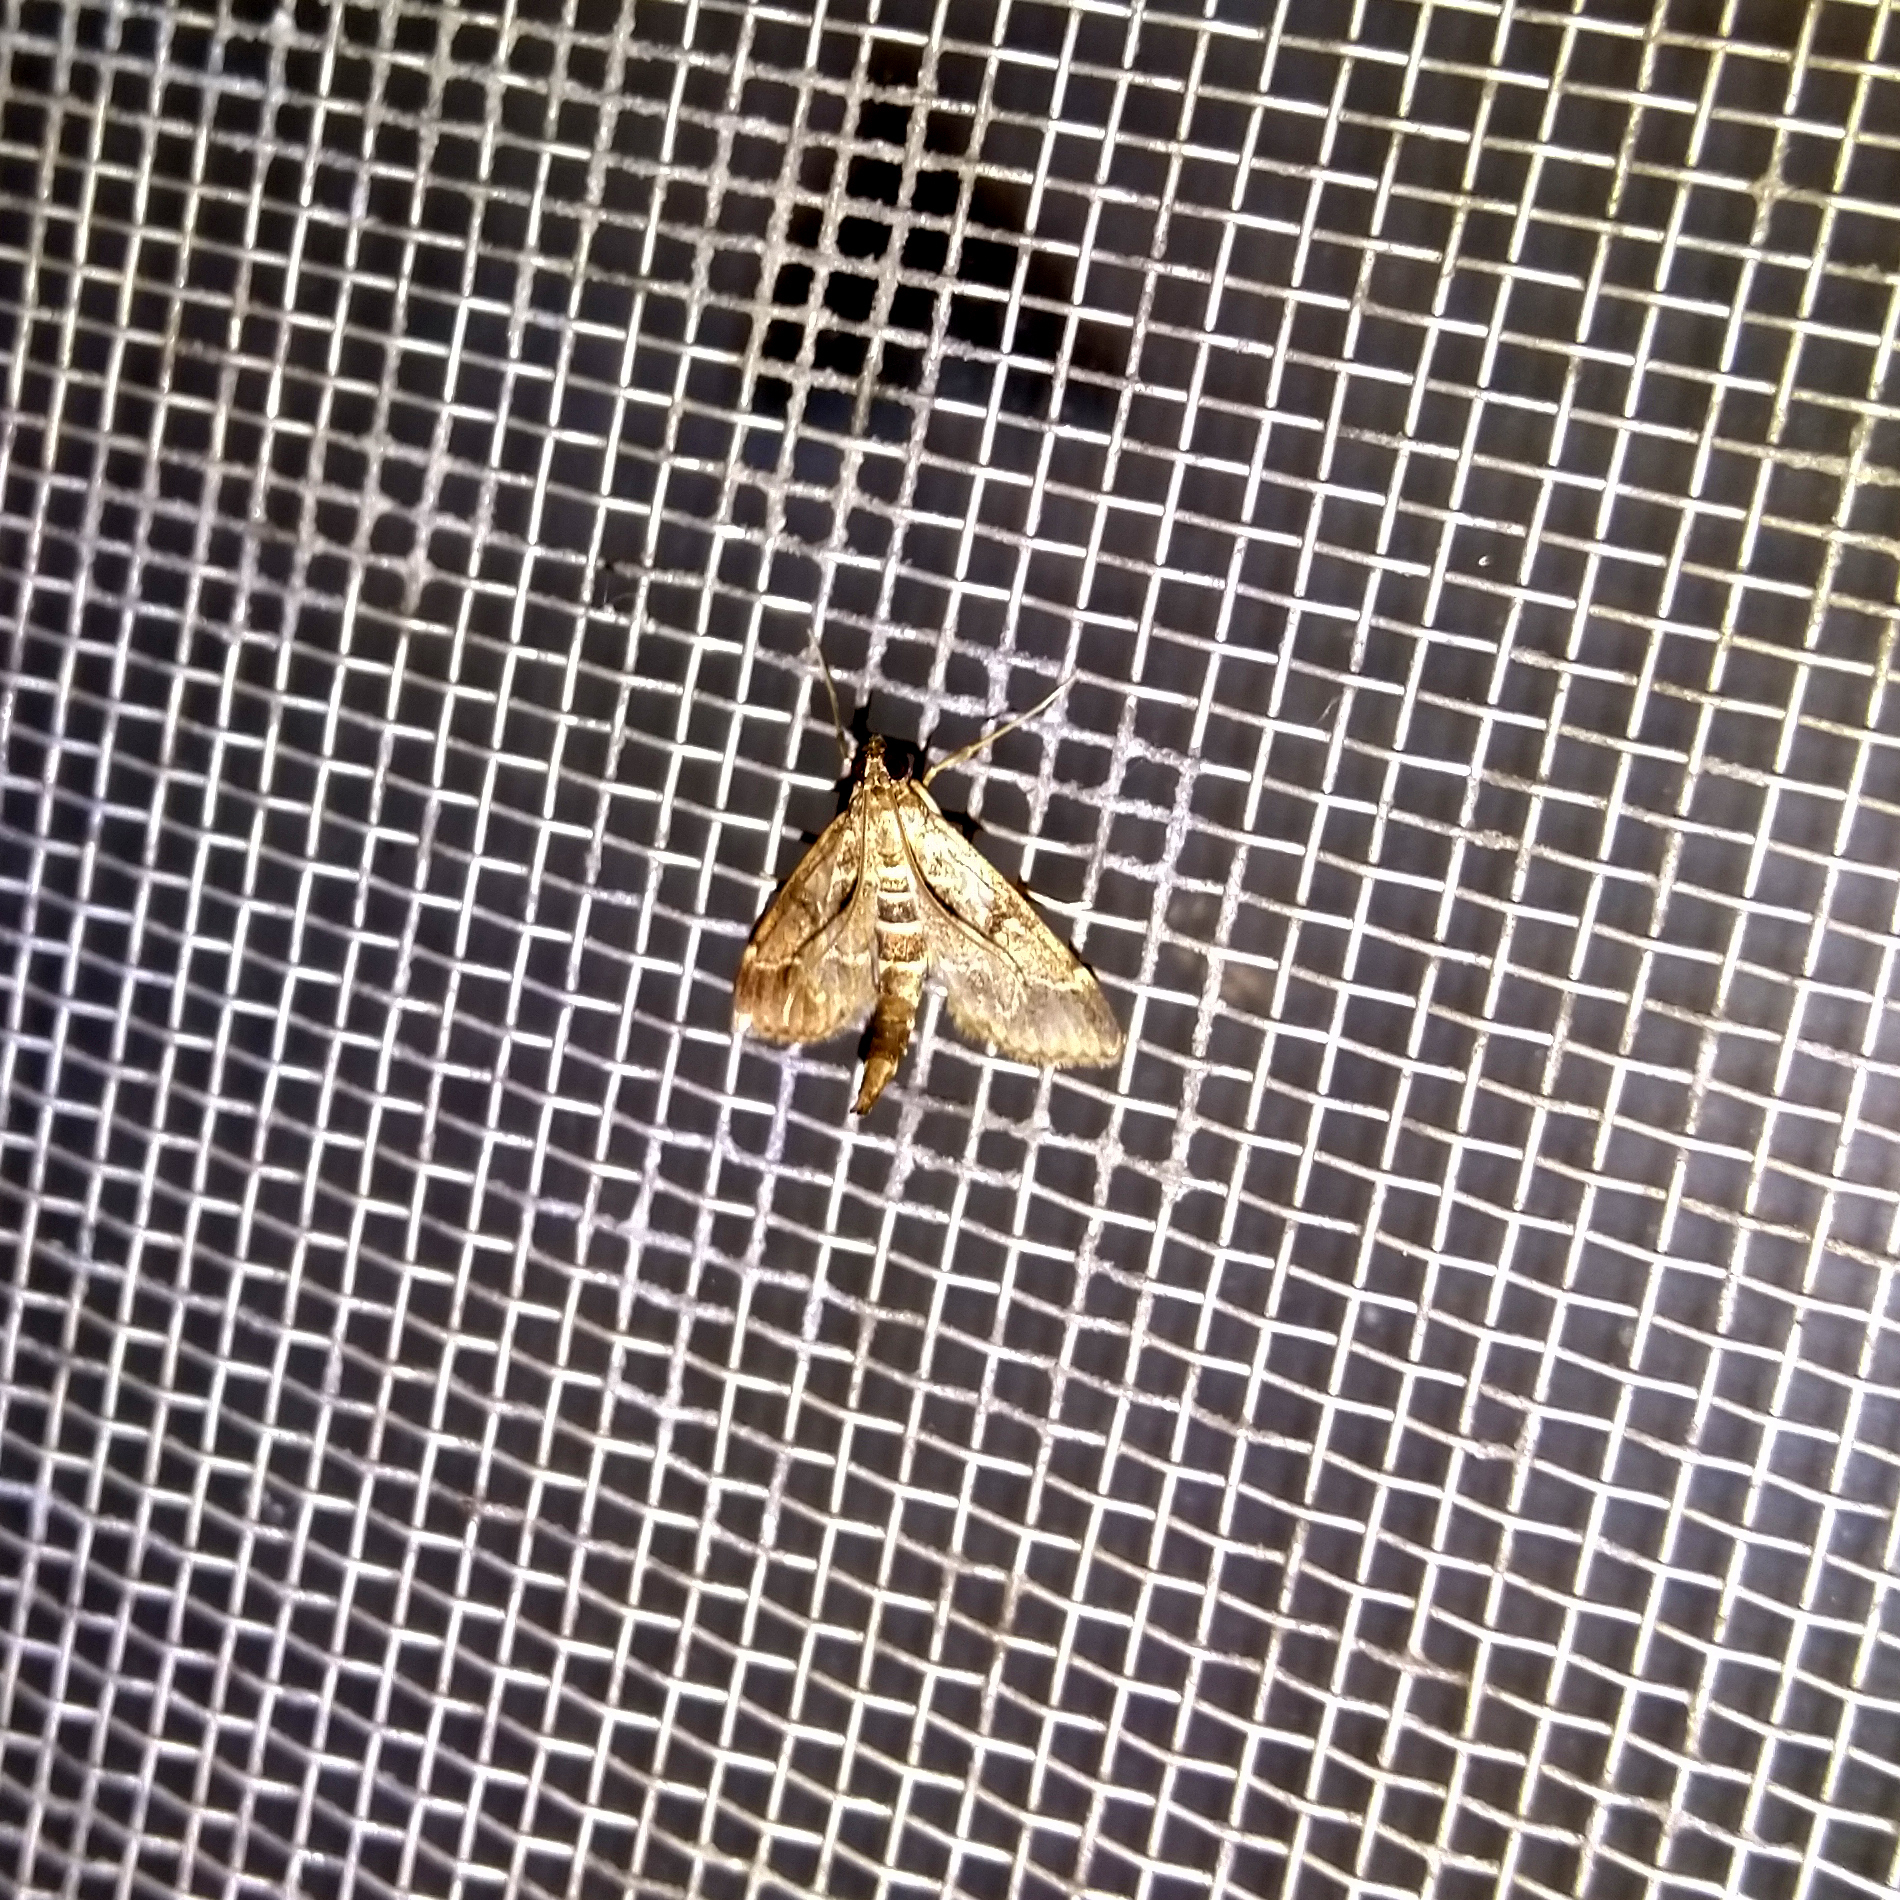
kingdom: Animalia
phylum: Arthropoda
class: Insecta
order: Lepidoptera
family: Crambidae
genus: Duponchelia
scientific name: Duponchelia fovealis
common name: Crambid moth
